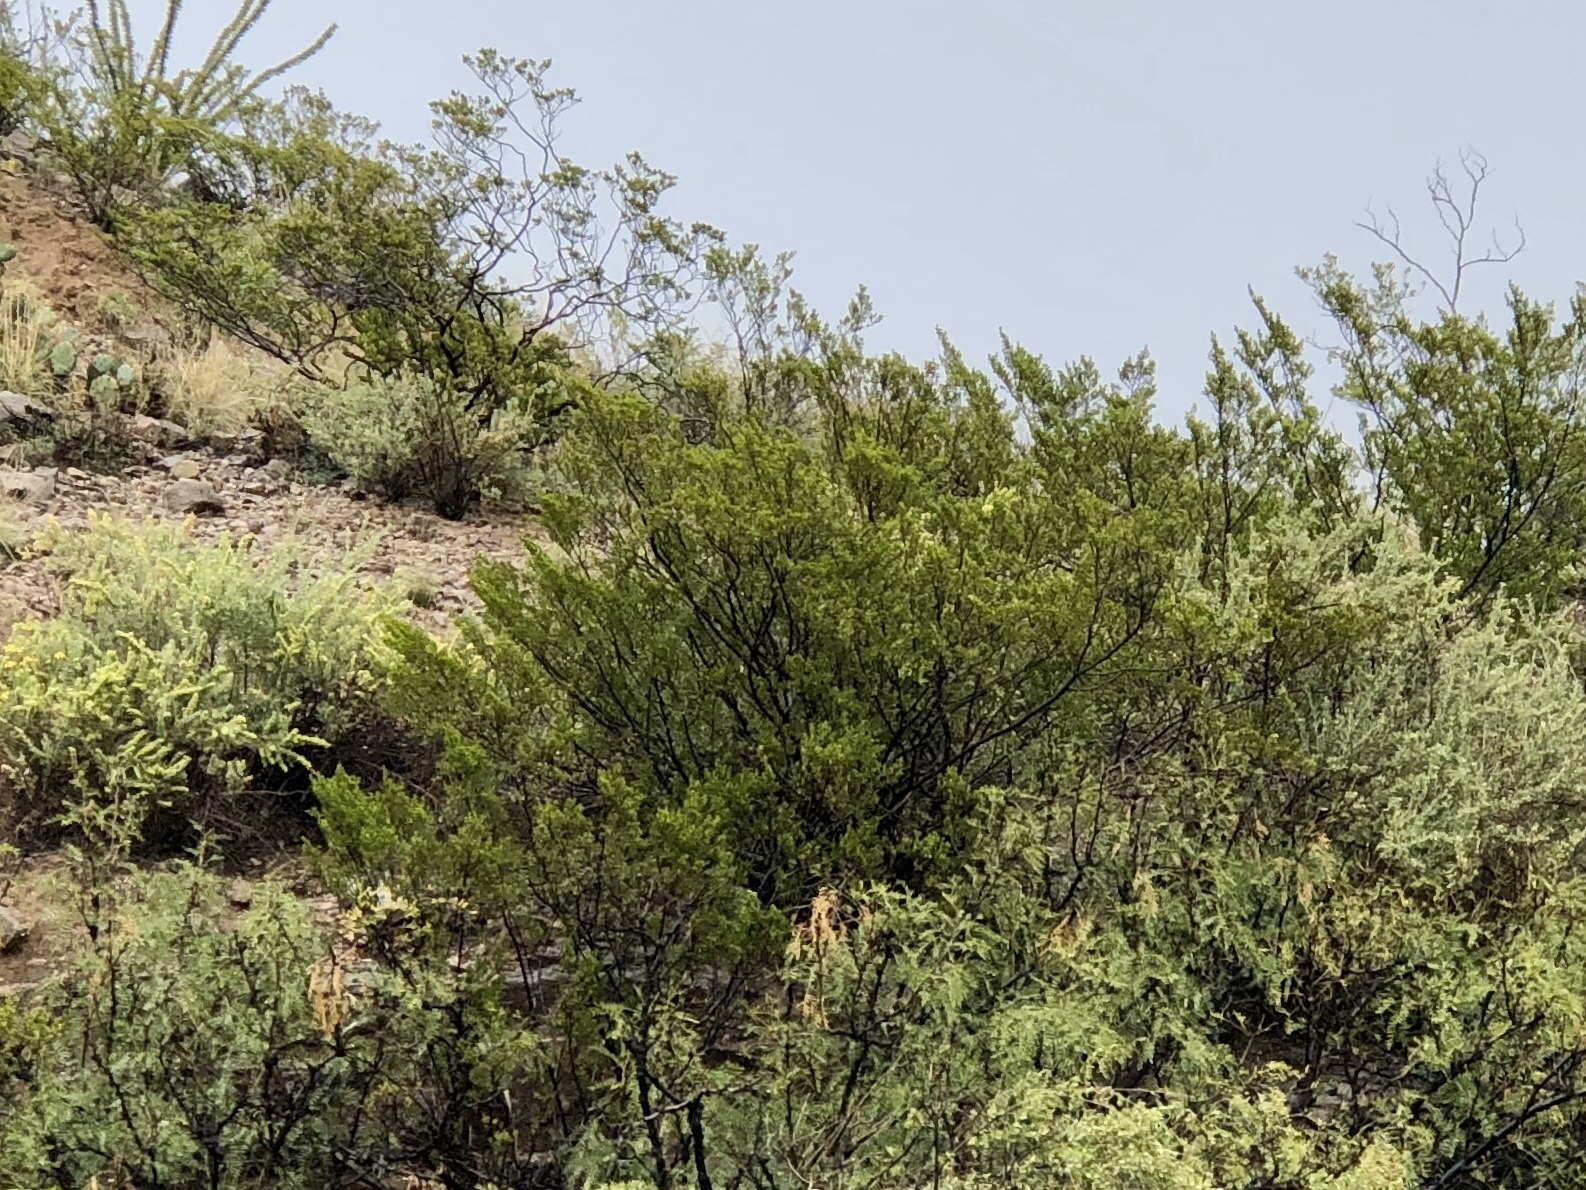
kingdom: Plantae
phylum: Tracheophyta
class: Magnoliopsida
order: Zygophyllales
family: Zygophyllaceae
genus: Larrea
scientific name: Larrea tridentata
